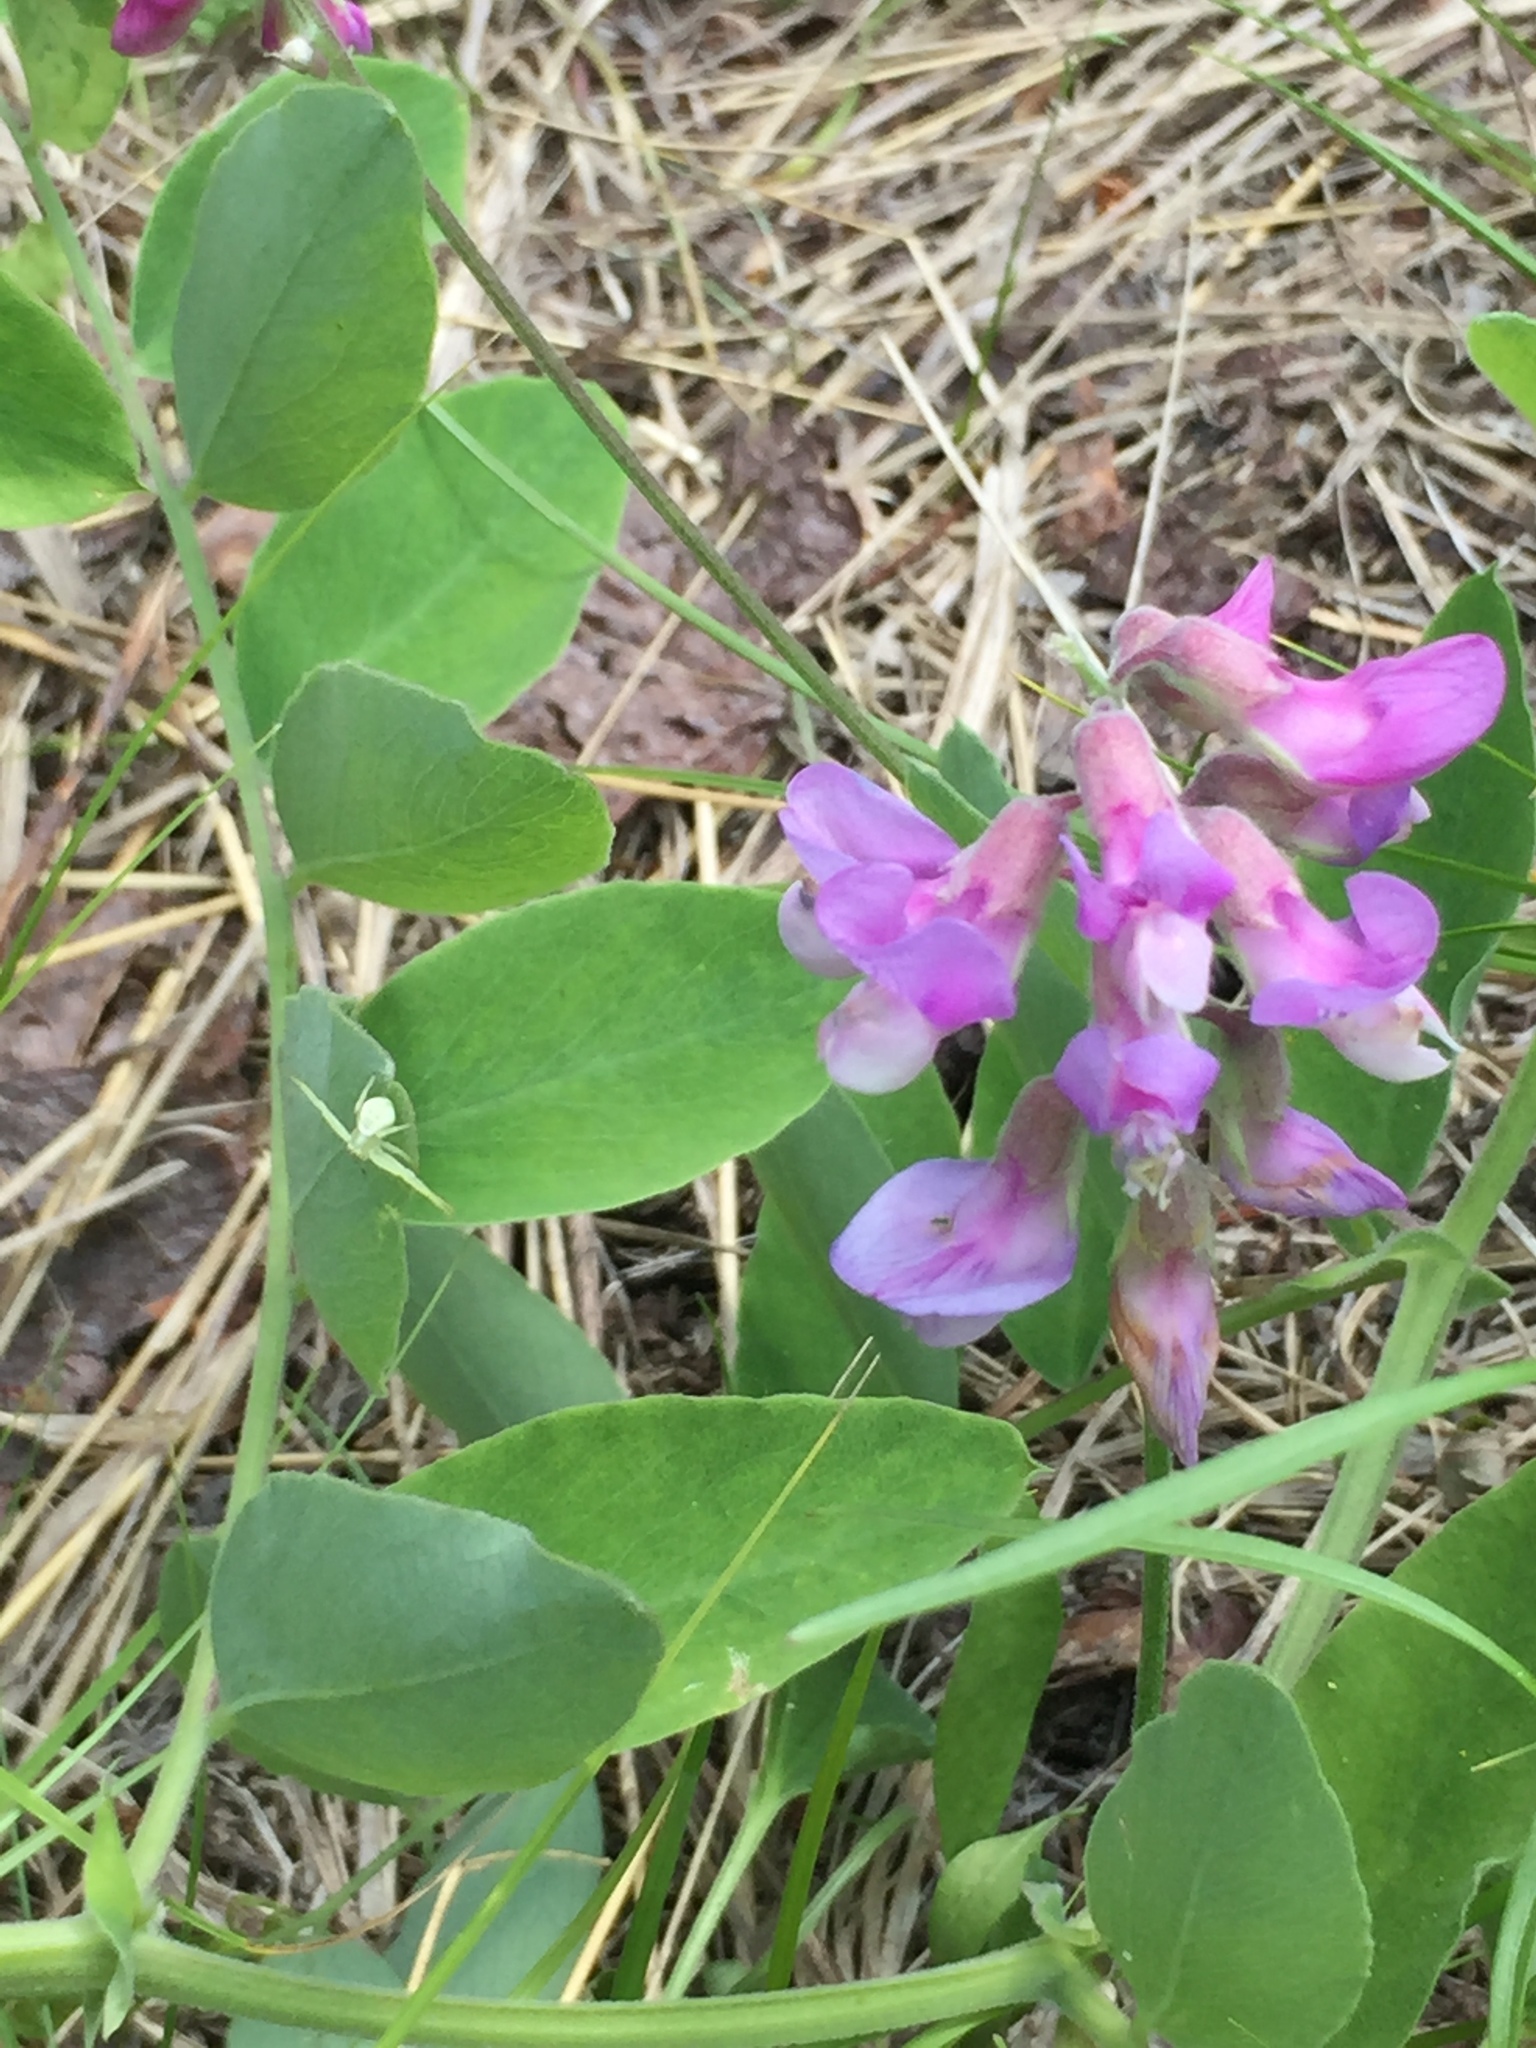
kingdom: Plantae
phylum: Tracheophyta
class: Magnoliopsida
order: Fabales
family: Fabaceae
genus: Lathyrus
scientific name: Lathyrus venosus
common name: Forest-pea
